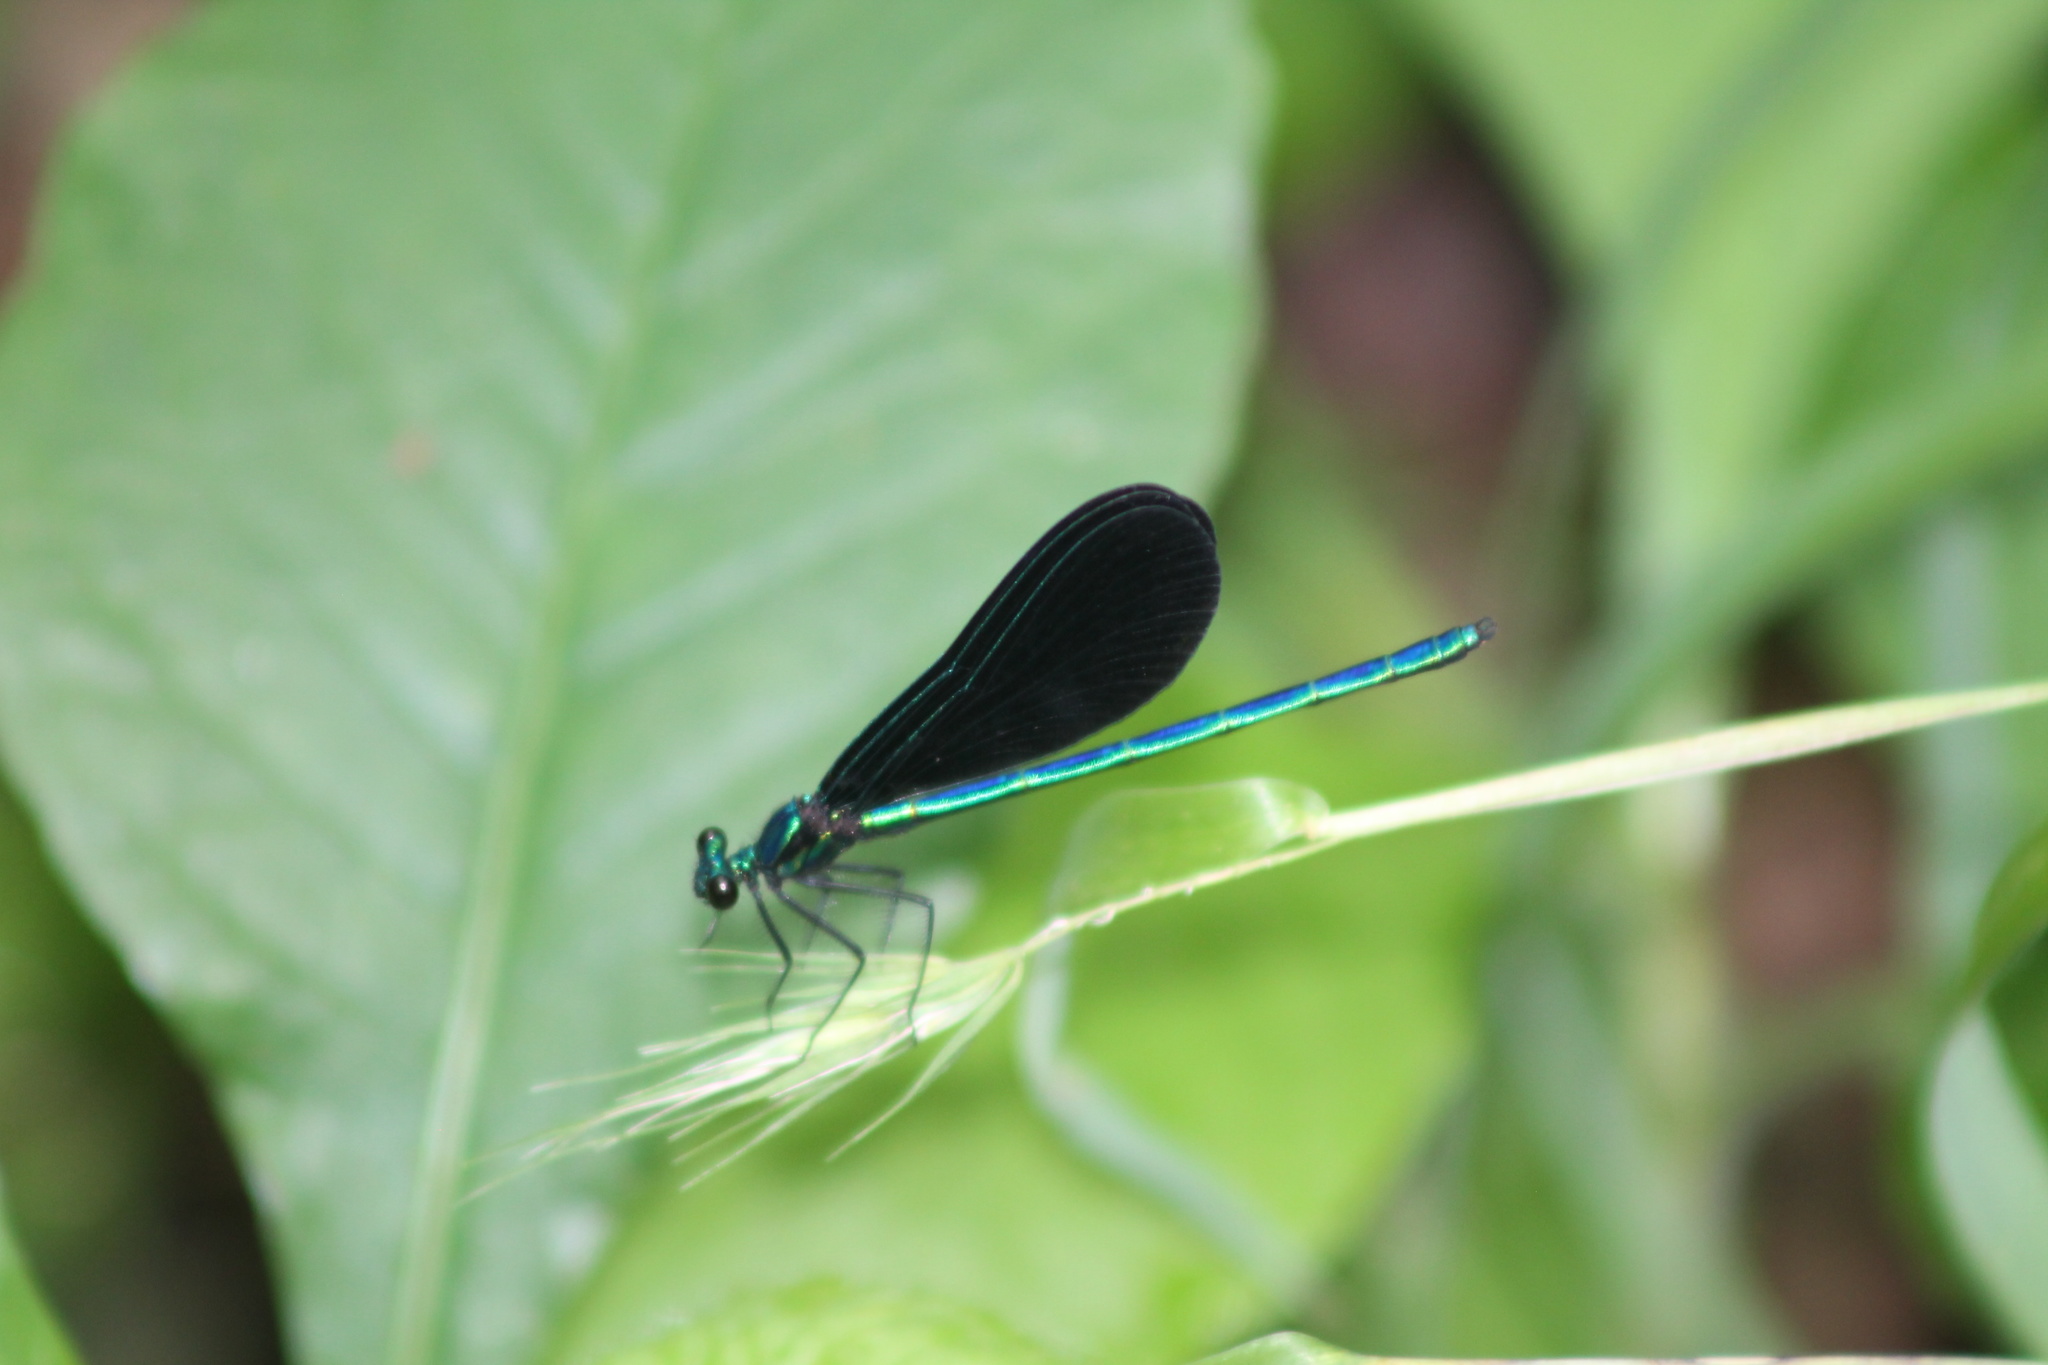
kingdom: Animalia
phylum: Arthropoda
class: Insecta
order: Odonata
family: Calopterygidae
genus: Calopteryx
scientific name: Calopteryx maculata
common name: Ebony jewelwing
